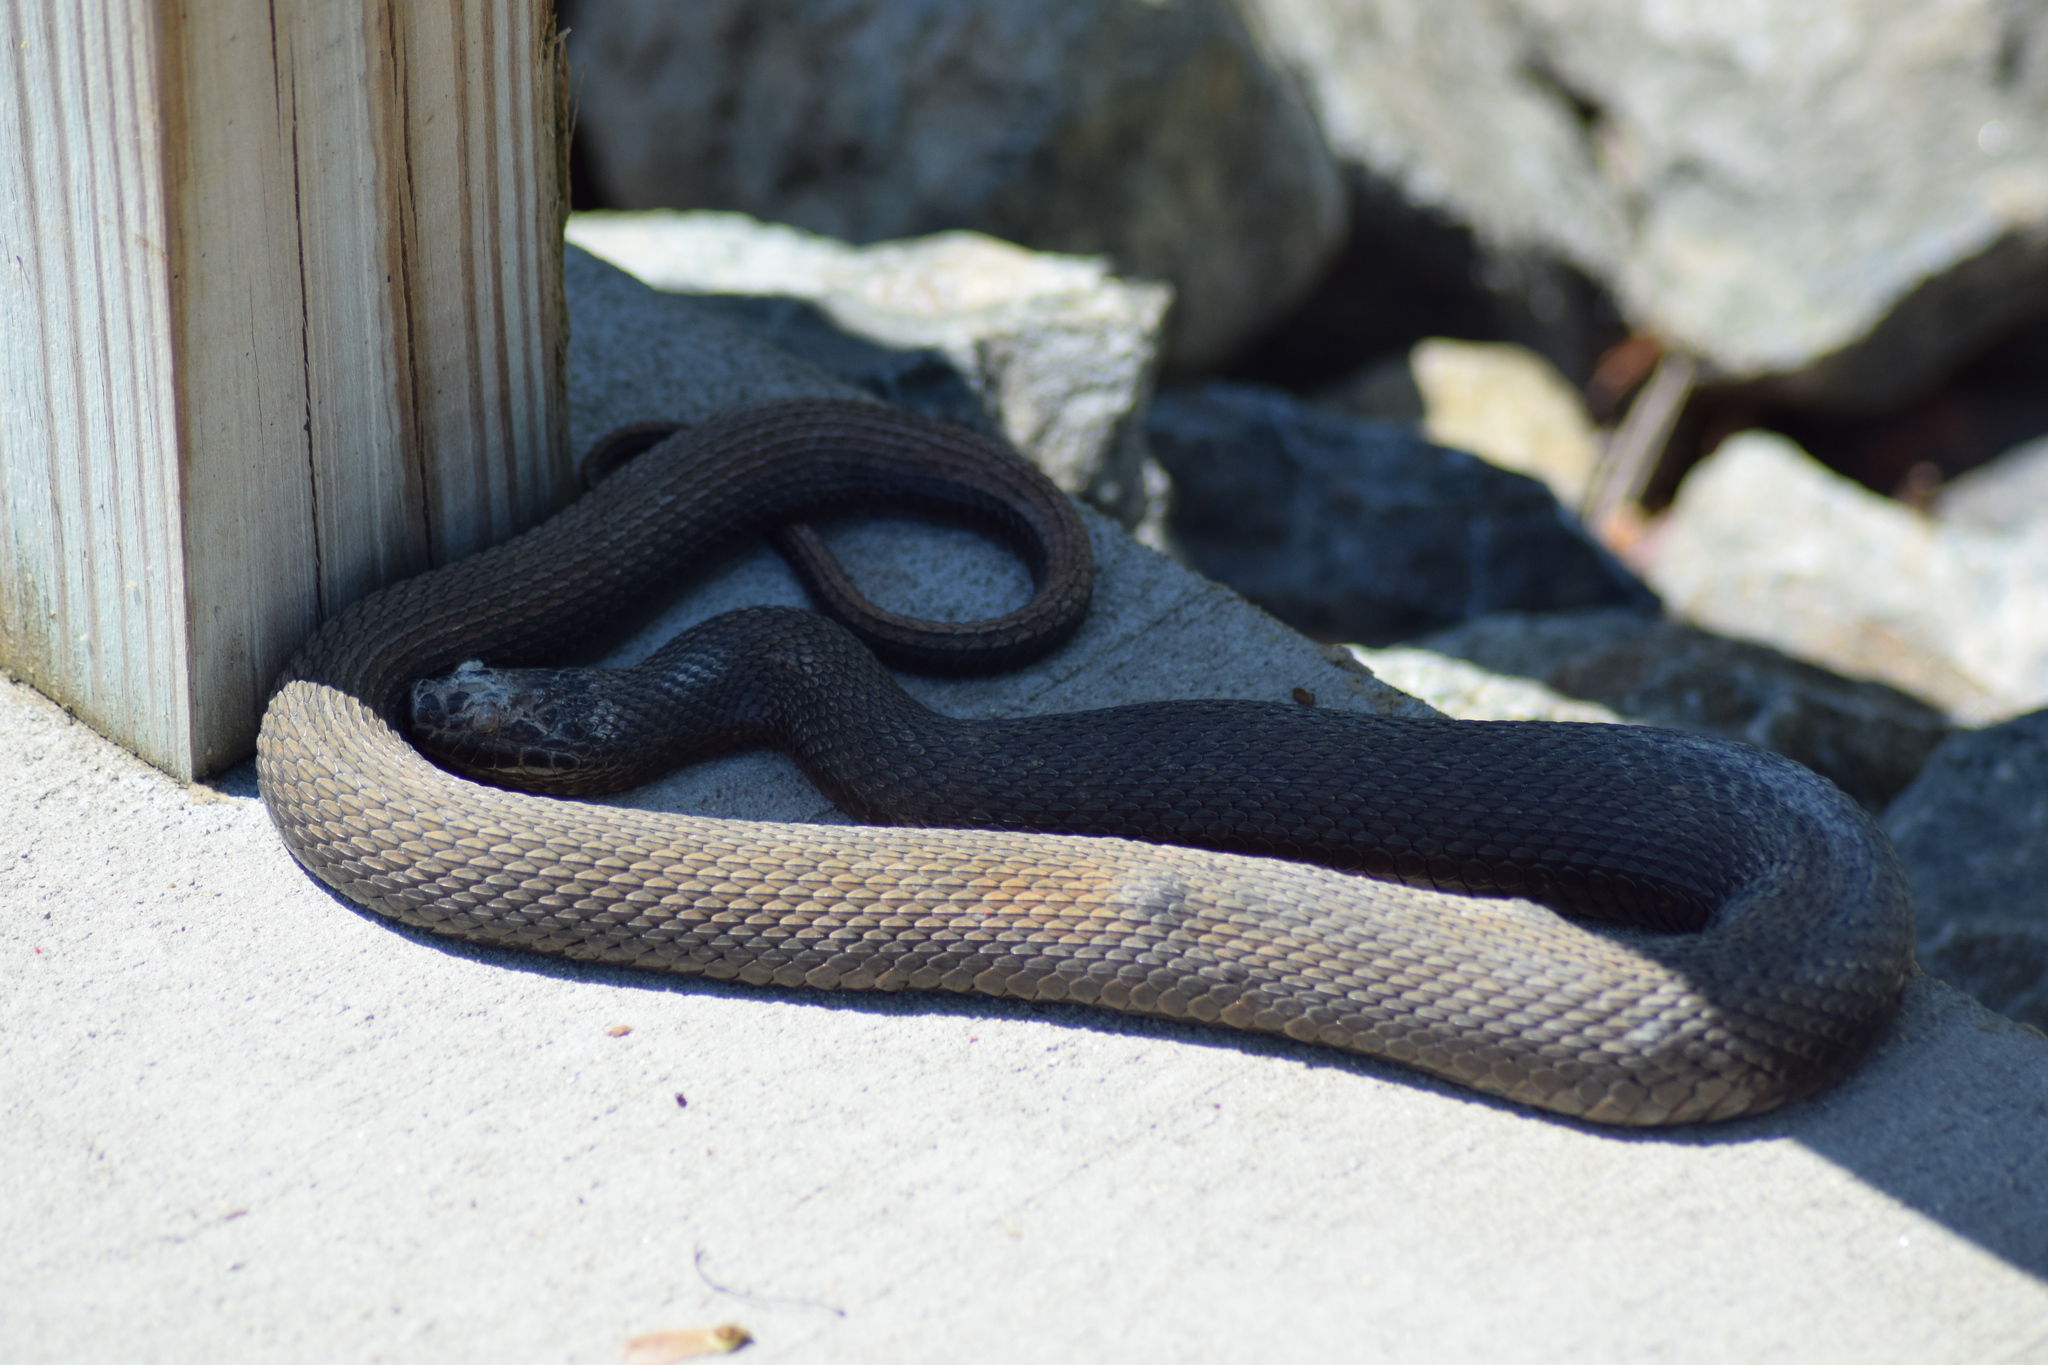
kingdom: Animalia
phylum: Chordata
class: Squamata
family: Colubridae
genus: Nerodia
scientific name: Nerodia sipedon
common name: Northern water snake
